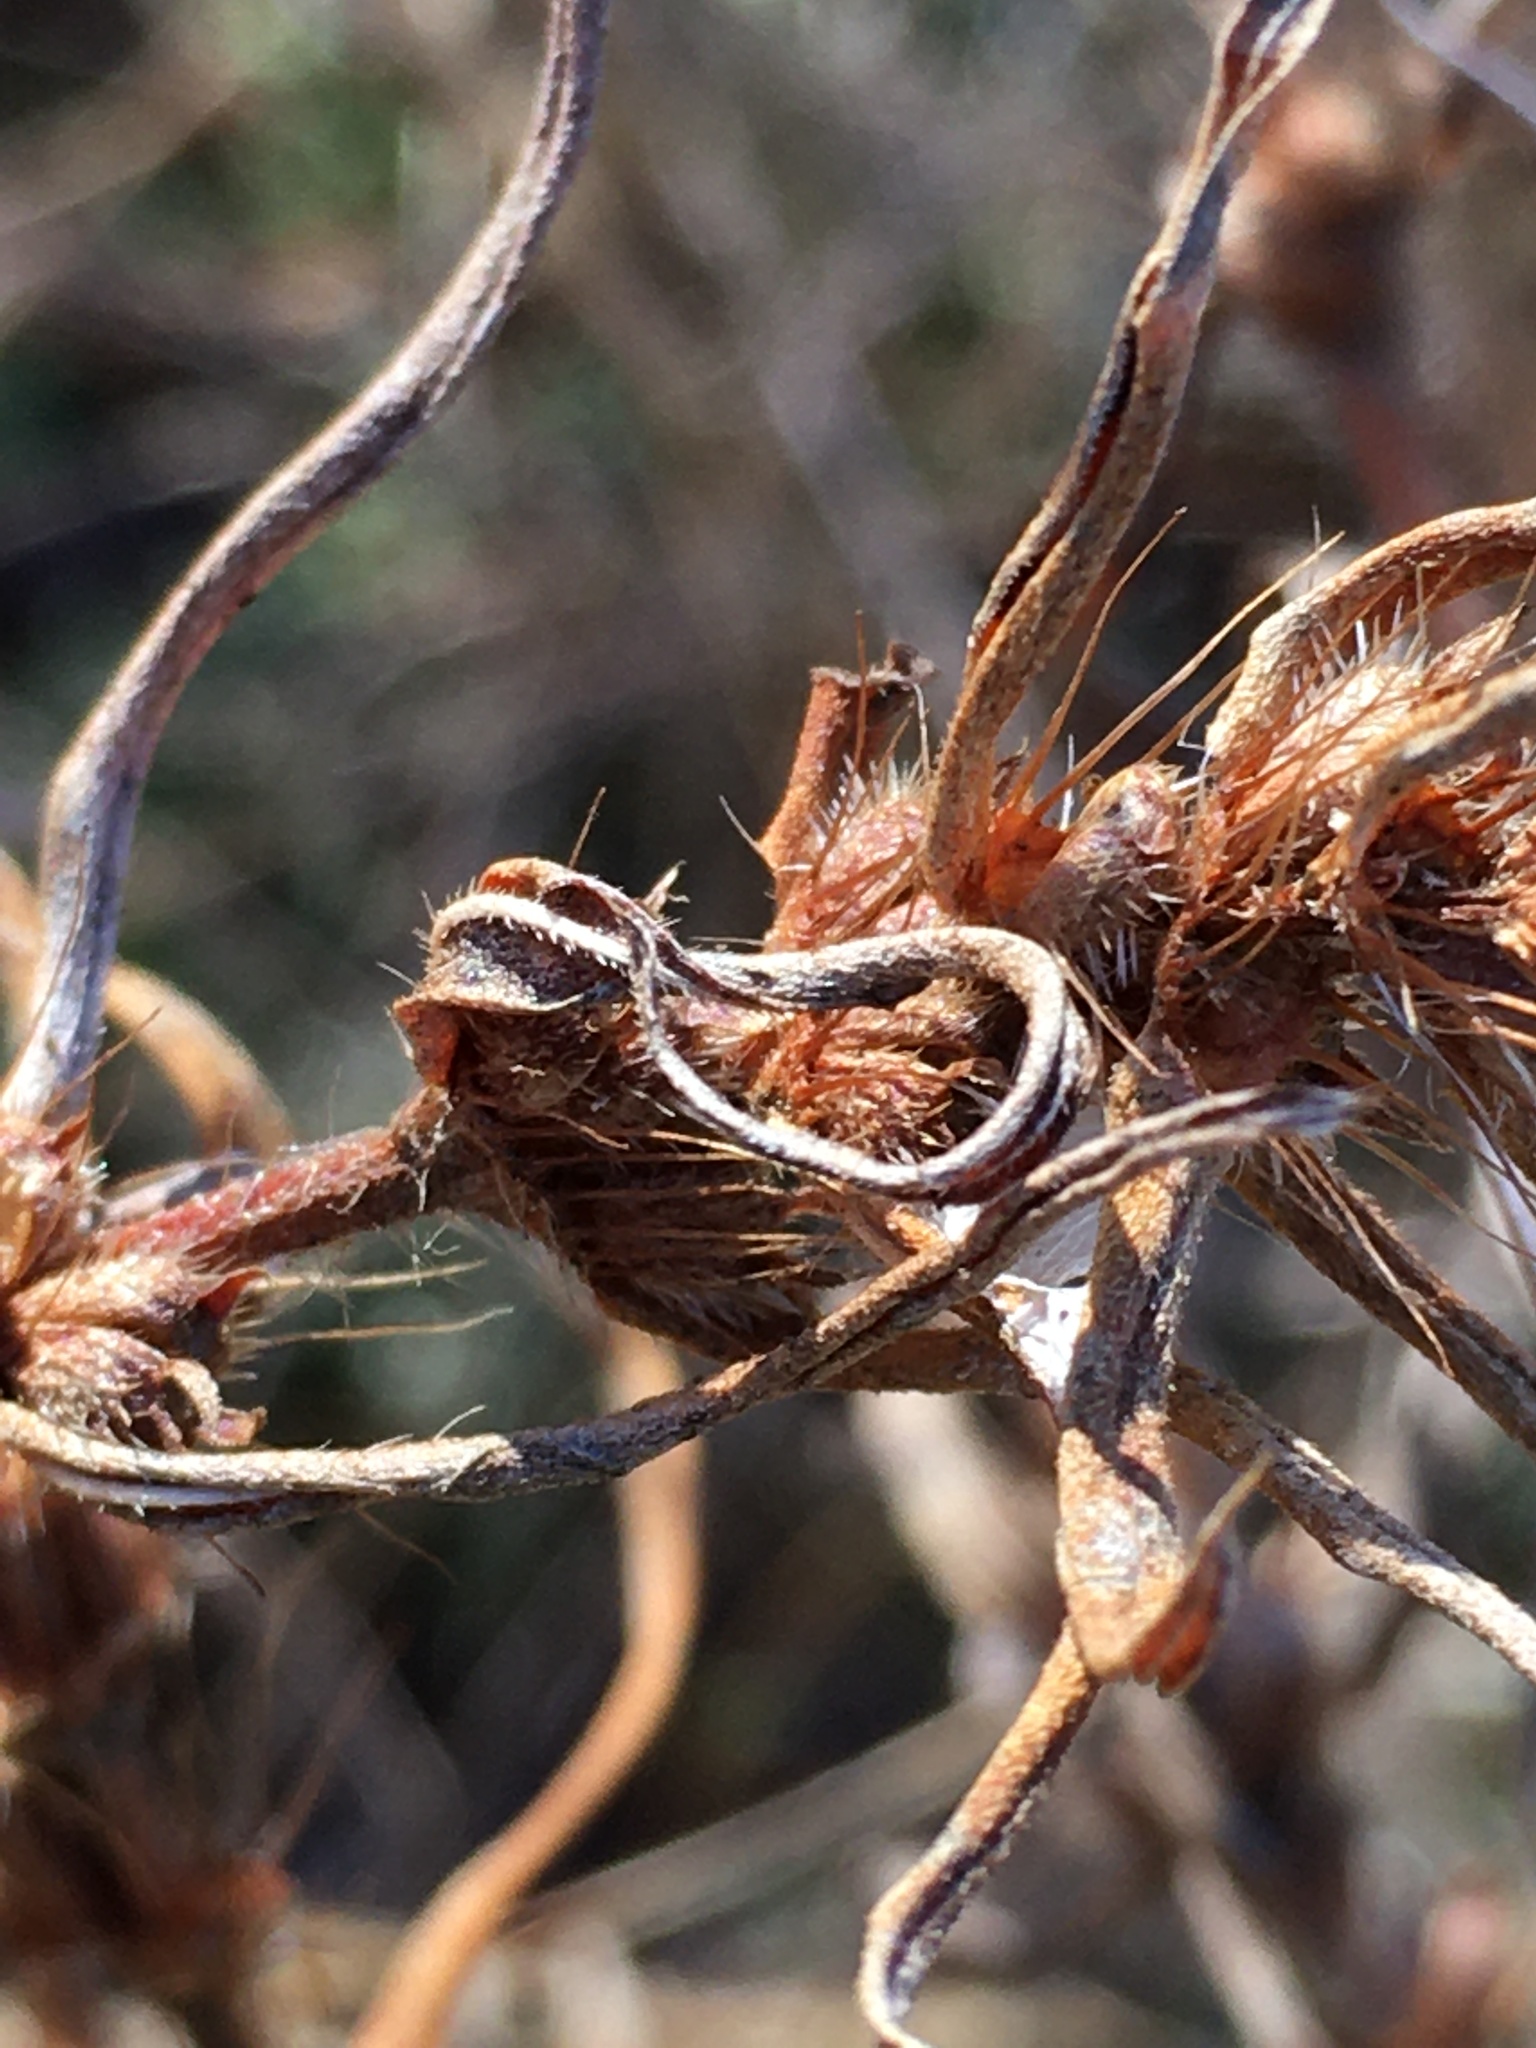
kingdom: Plantae
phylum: Tracheophyta
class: Magnoliopsida
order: Gentianales
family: Rubiaceae
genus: Hexasepalum
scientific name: Hexasepalum teres
